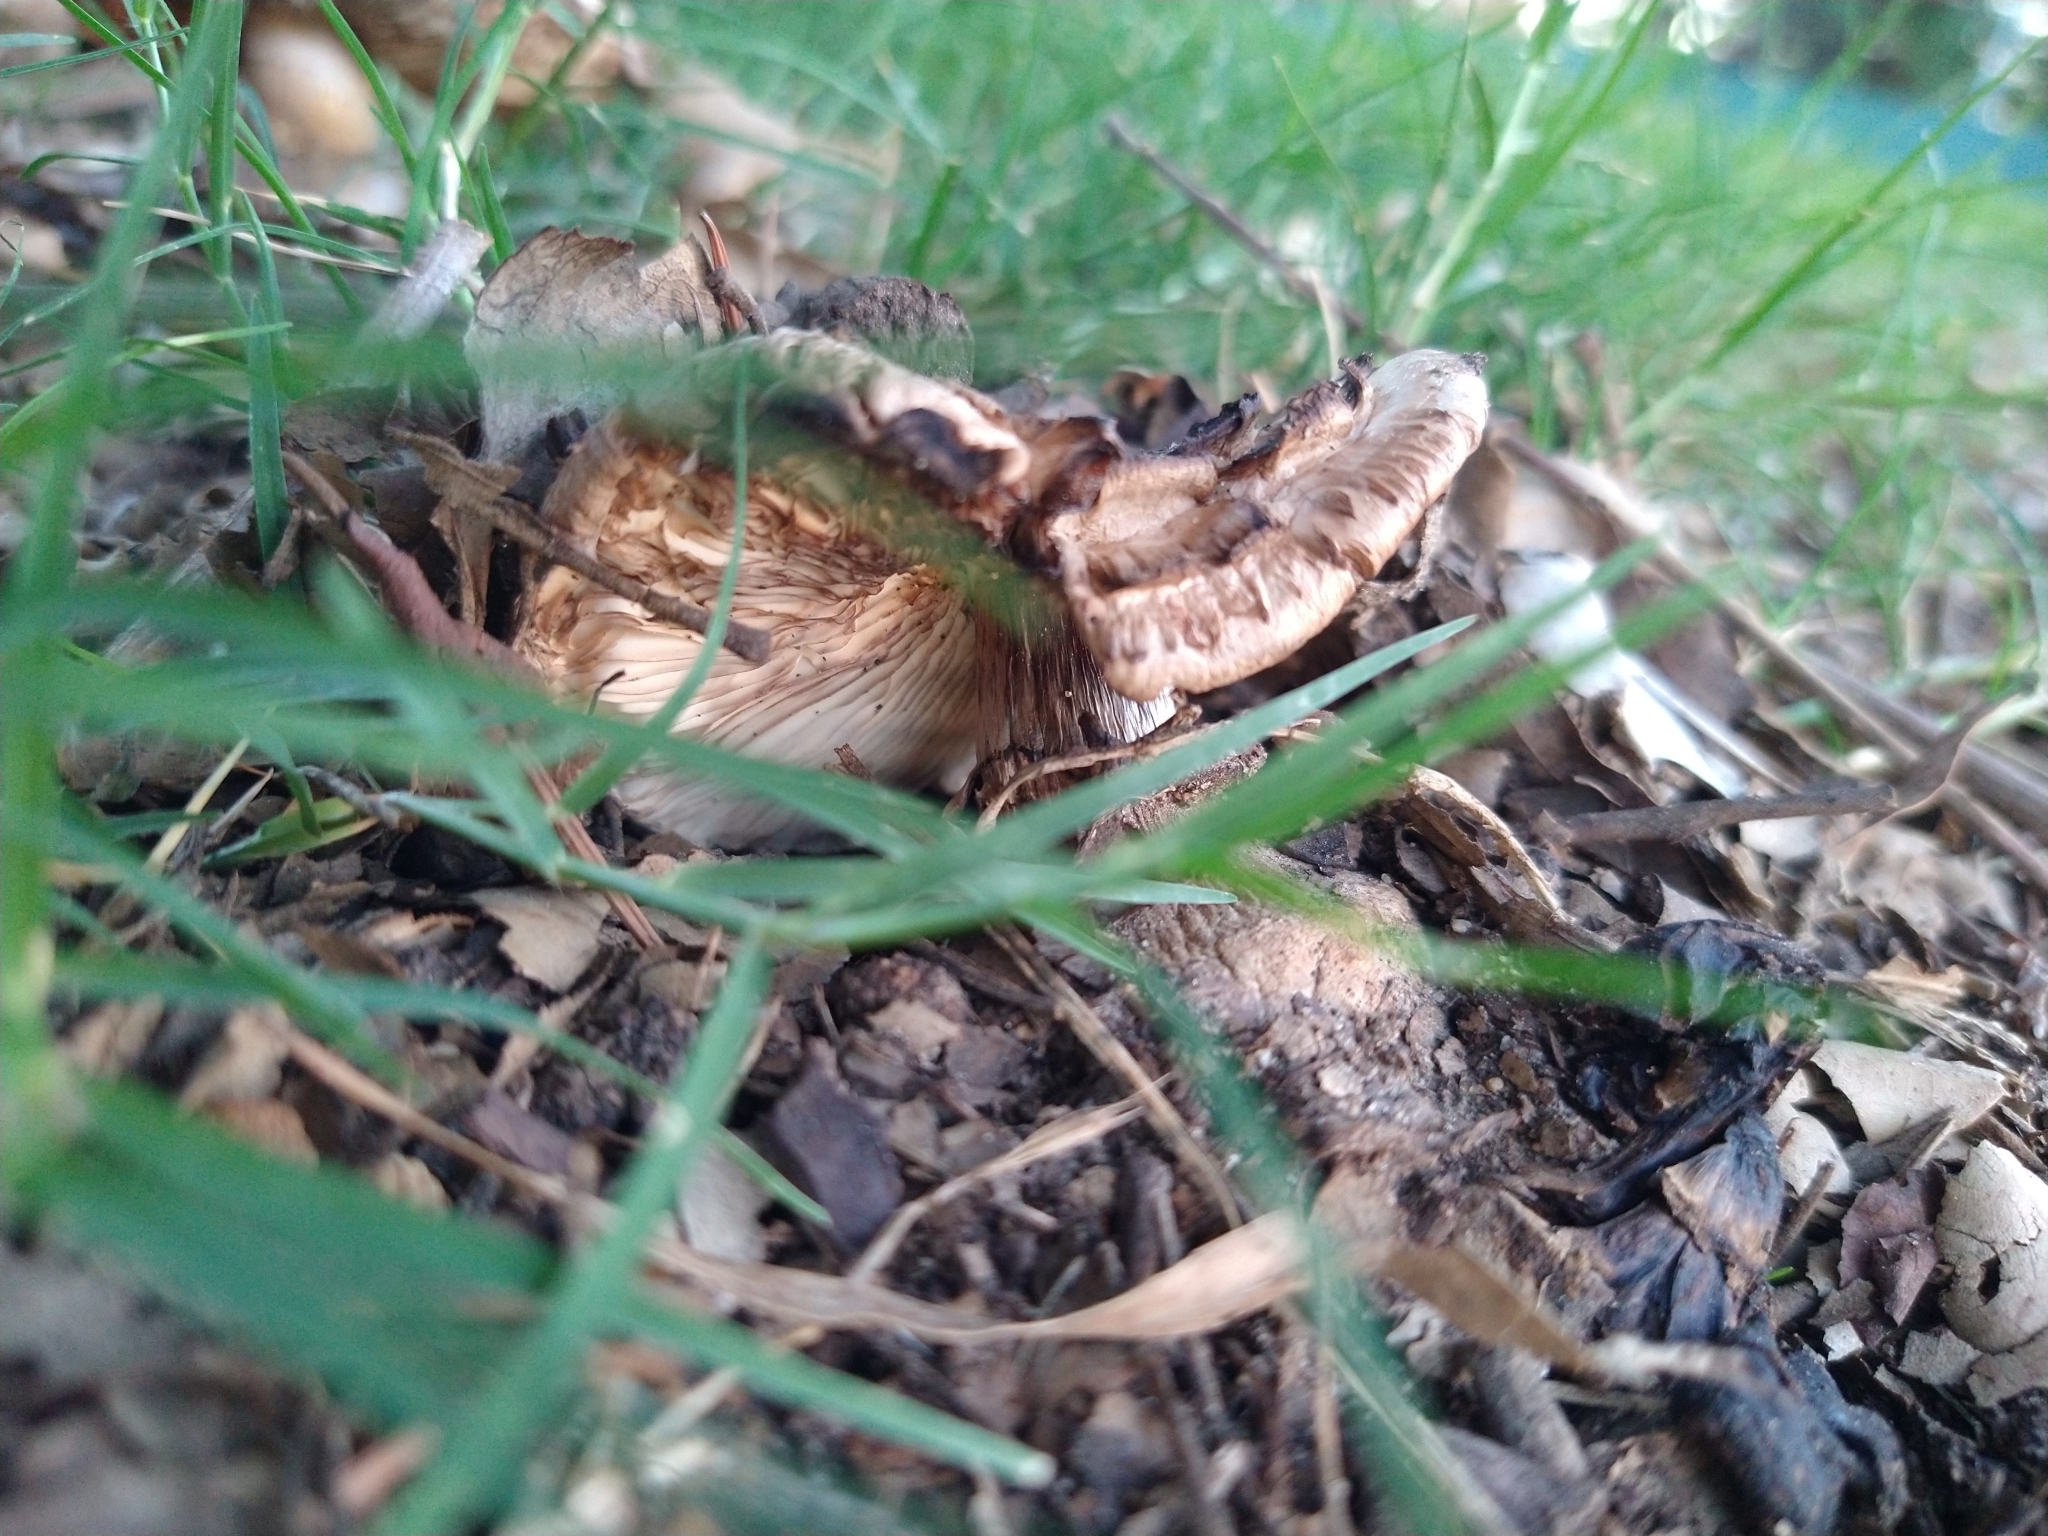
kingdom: Fungi
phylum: Basidiomycota
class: Agaricomycetes
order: Agaricales
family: Agaricaceae
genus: Chlorophyllum
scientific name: Chlorophyllum brunneum
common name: Brown parasol
